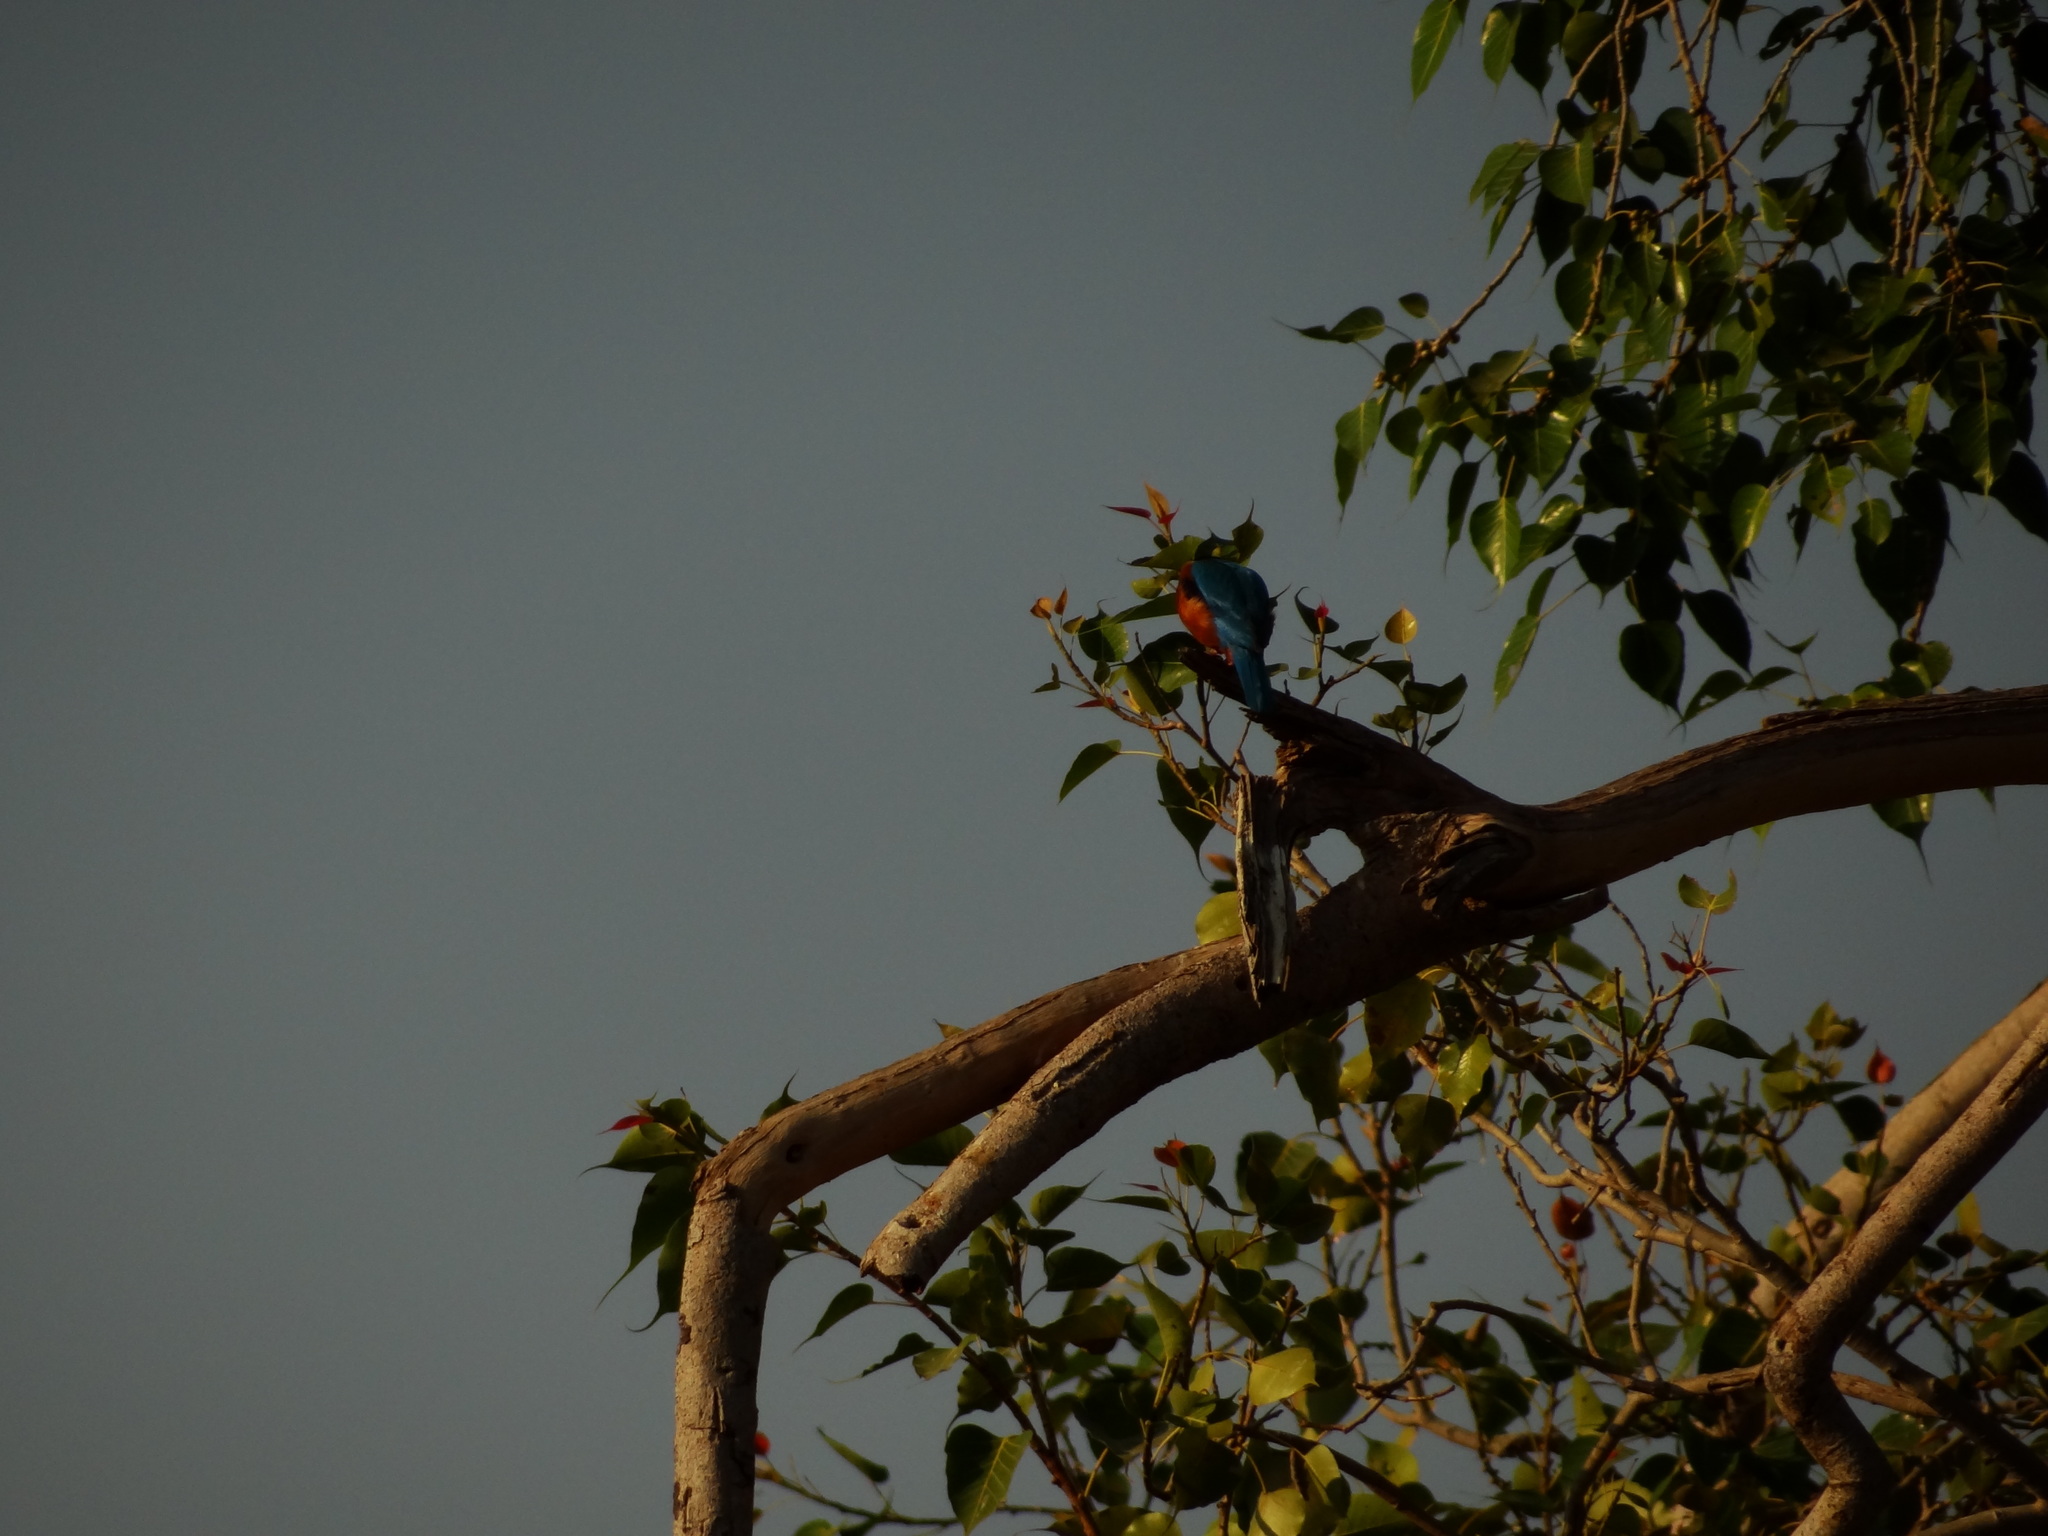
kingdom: Animalia
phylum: Chordata
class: Aves
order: Coraciiformes
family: Alcedinidae
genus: Halcyon
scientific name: Halcyon smyrnensis
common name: White-throated kingfisher
